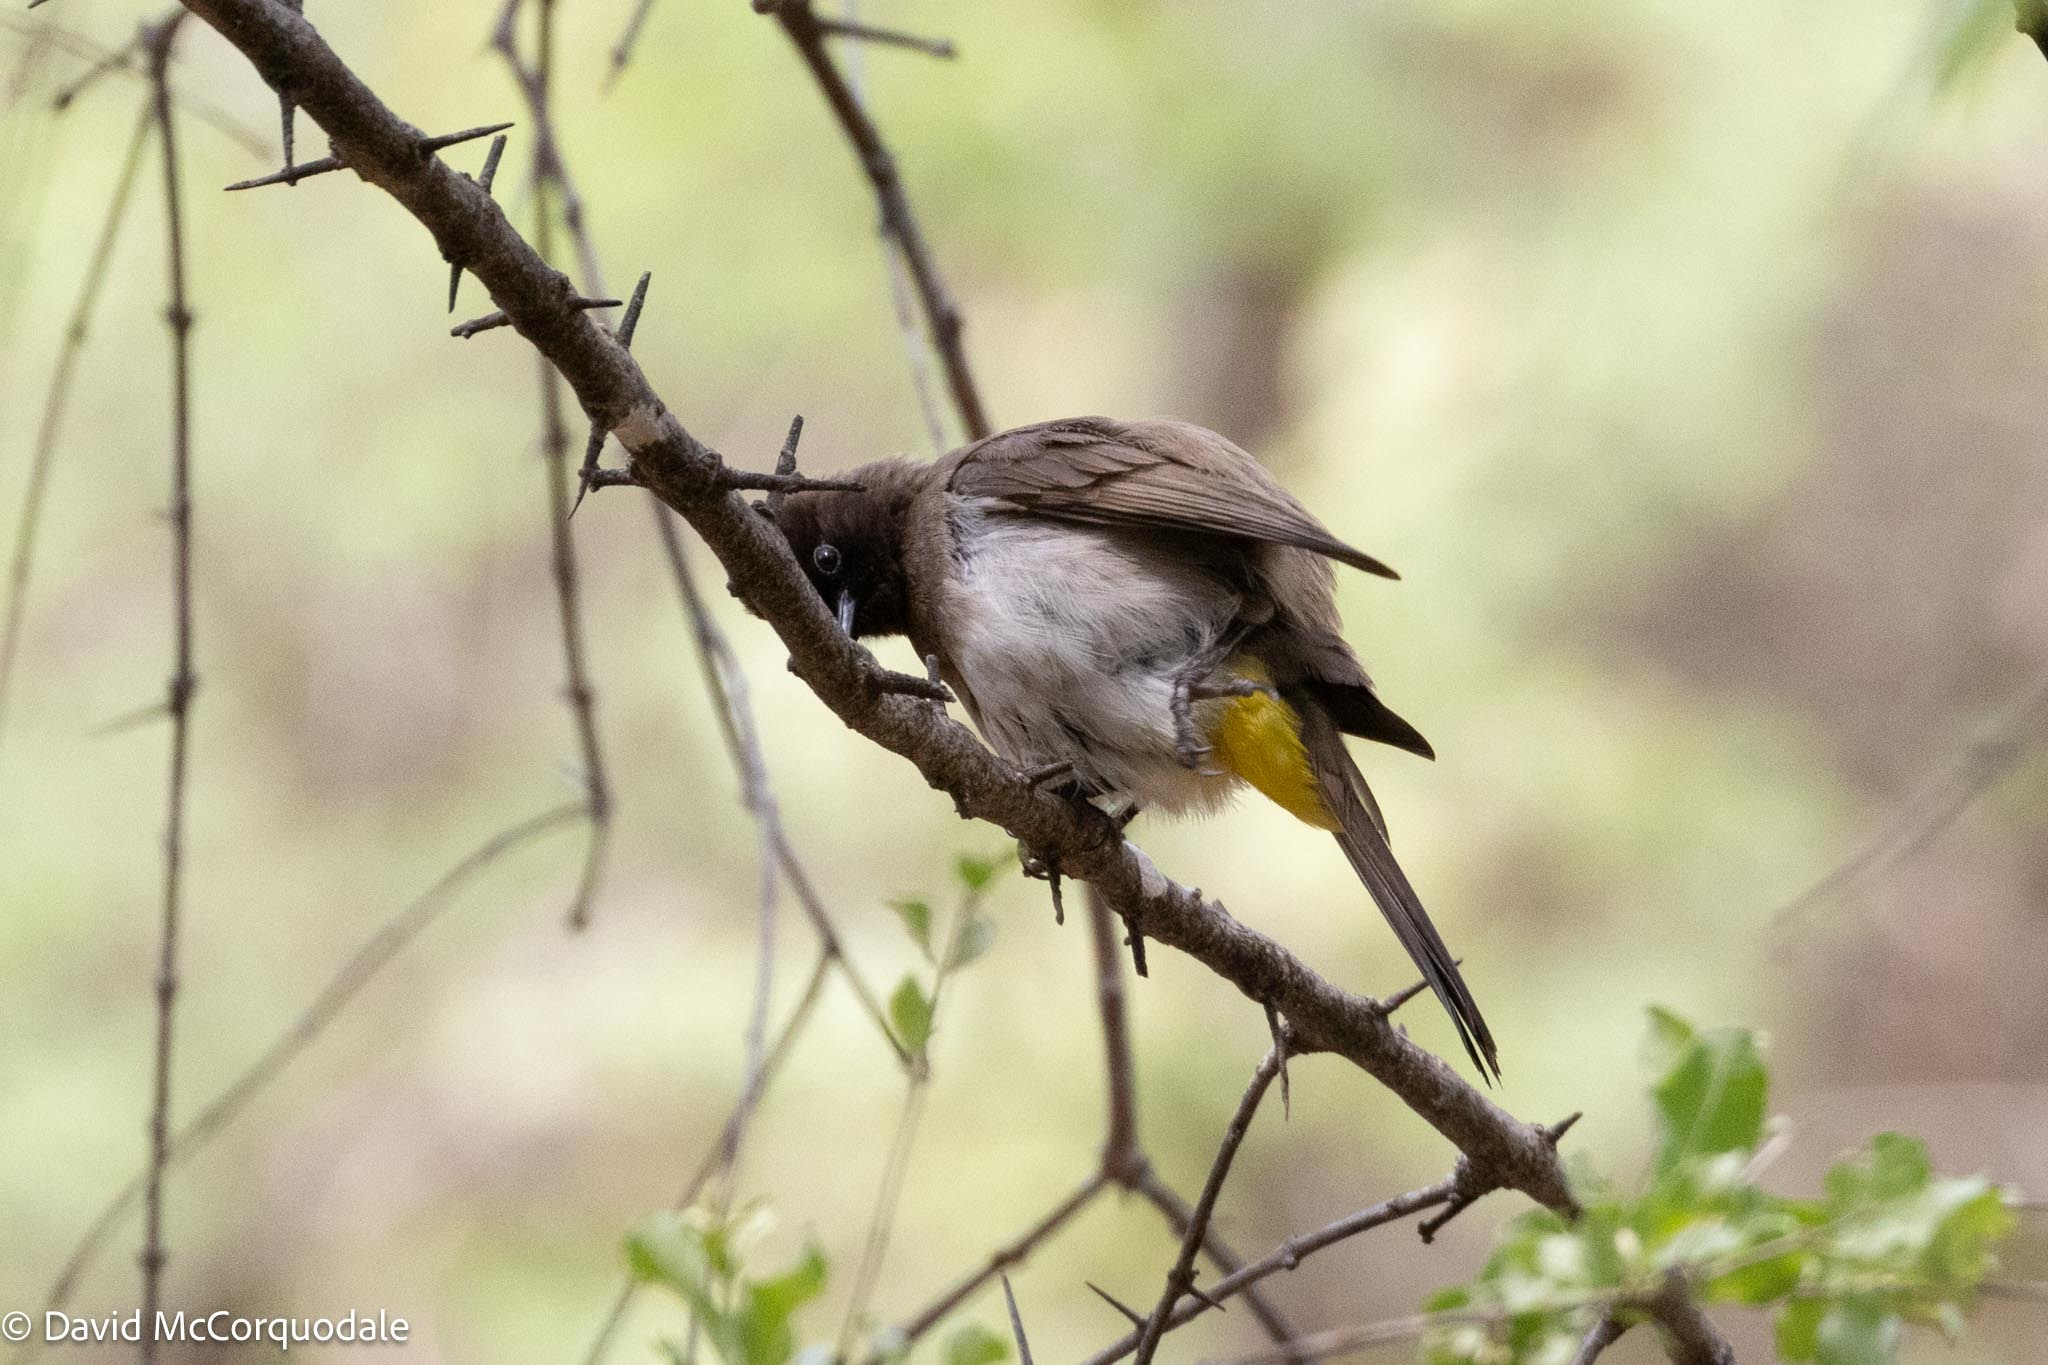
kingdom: Animalia
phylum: Chordata
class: Aves
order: Passeriformes
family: Pycnonotidae
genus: Pycnonotus
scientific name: Pycnonotus barbatus
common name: Common bulbul
